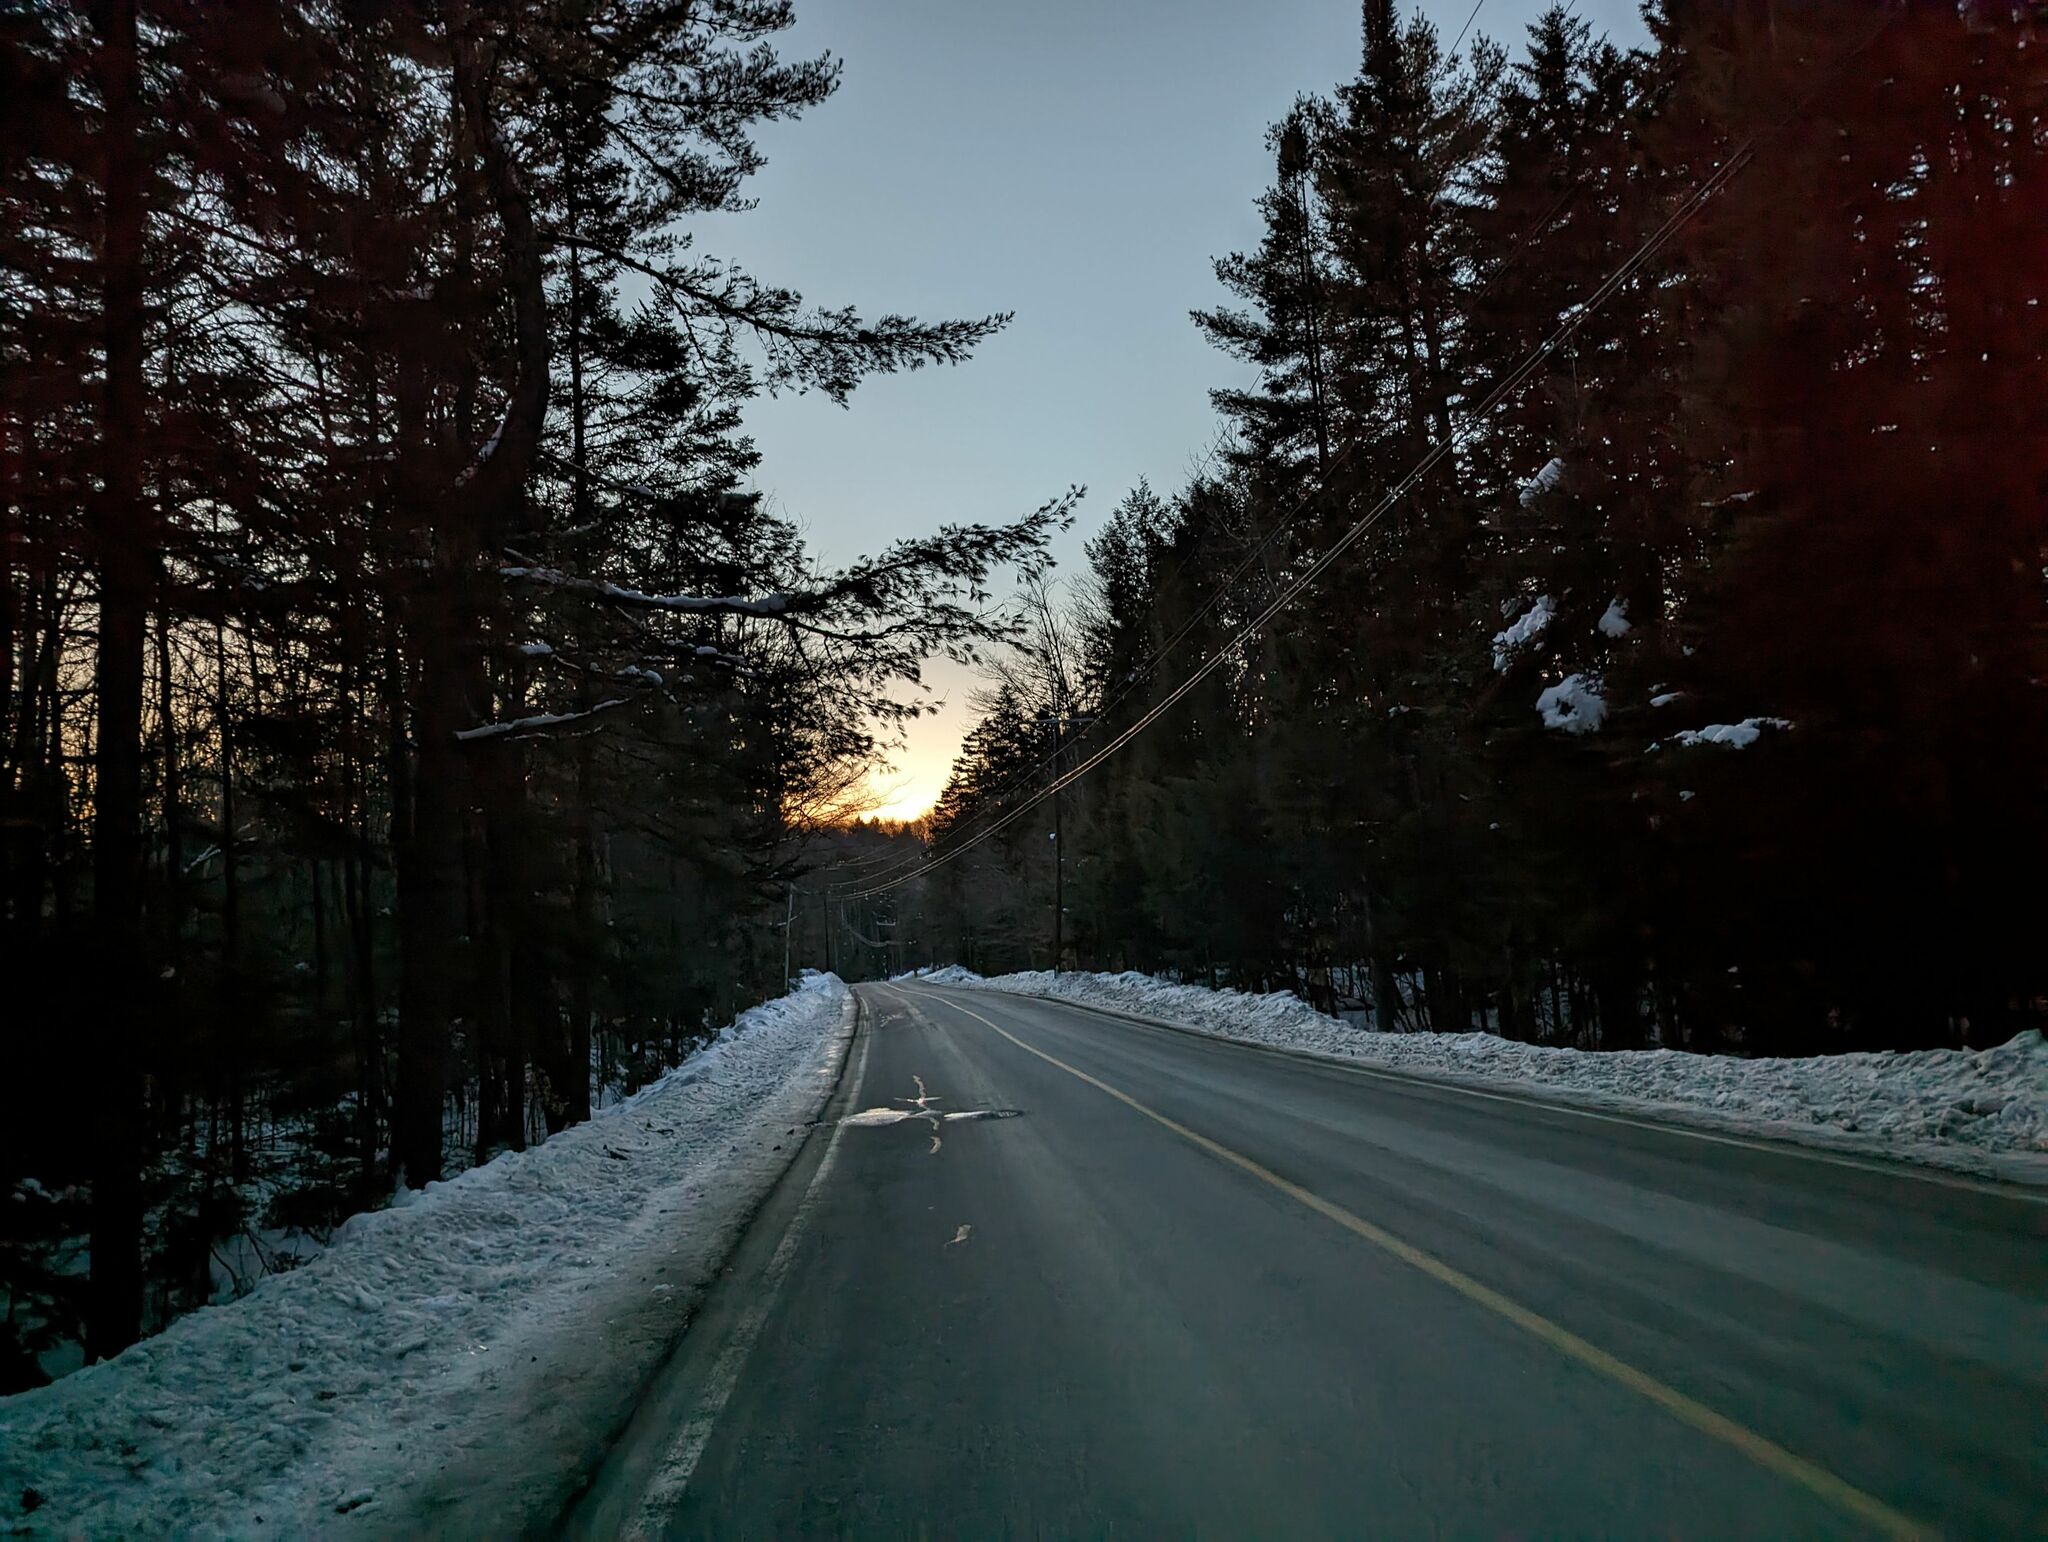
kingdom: Plantae
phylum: Tracheophyta
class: Pinopsida
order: Pinales
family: Pinaceae
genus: Pinus
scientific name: Pinus strobus
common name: Weymouth pine
